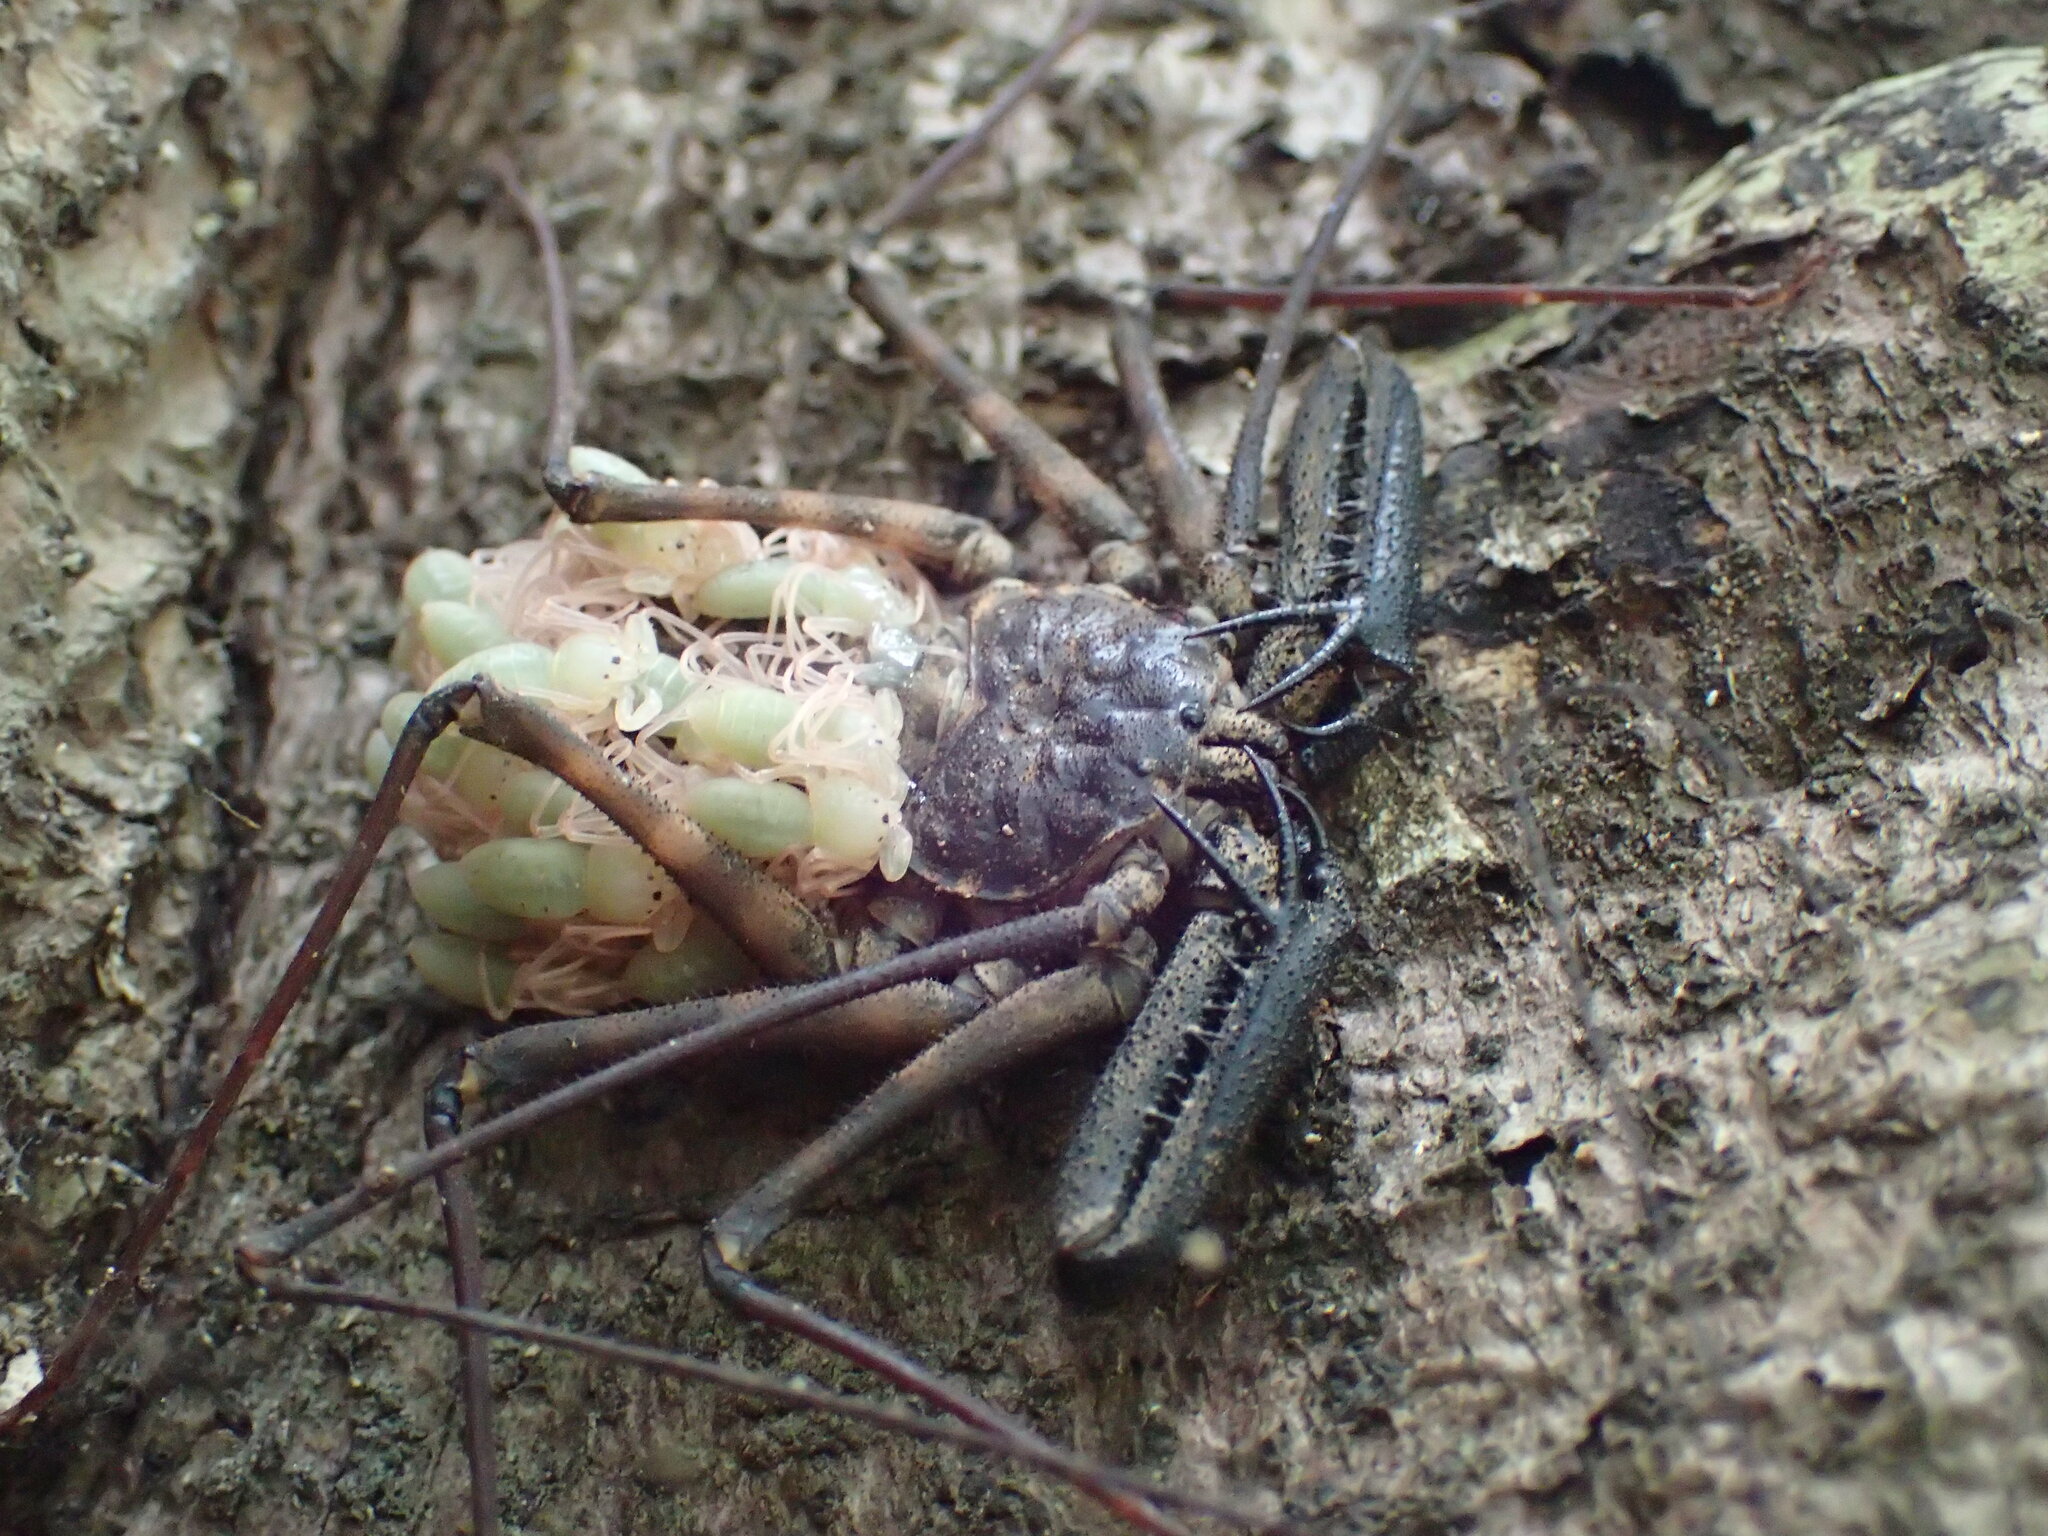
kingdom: Animalia
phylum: Arthropoda
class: Arachnida
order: Amblypygi
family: Phrynichidae
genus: Damon
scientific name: Damon annulatipes
